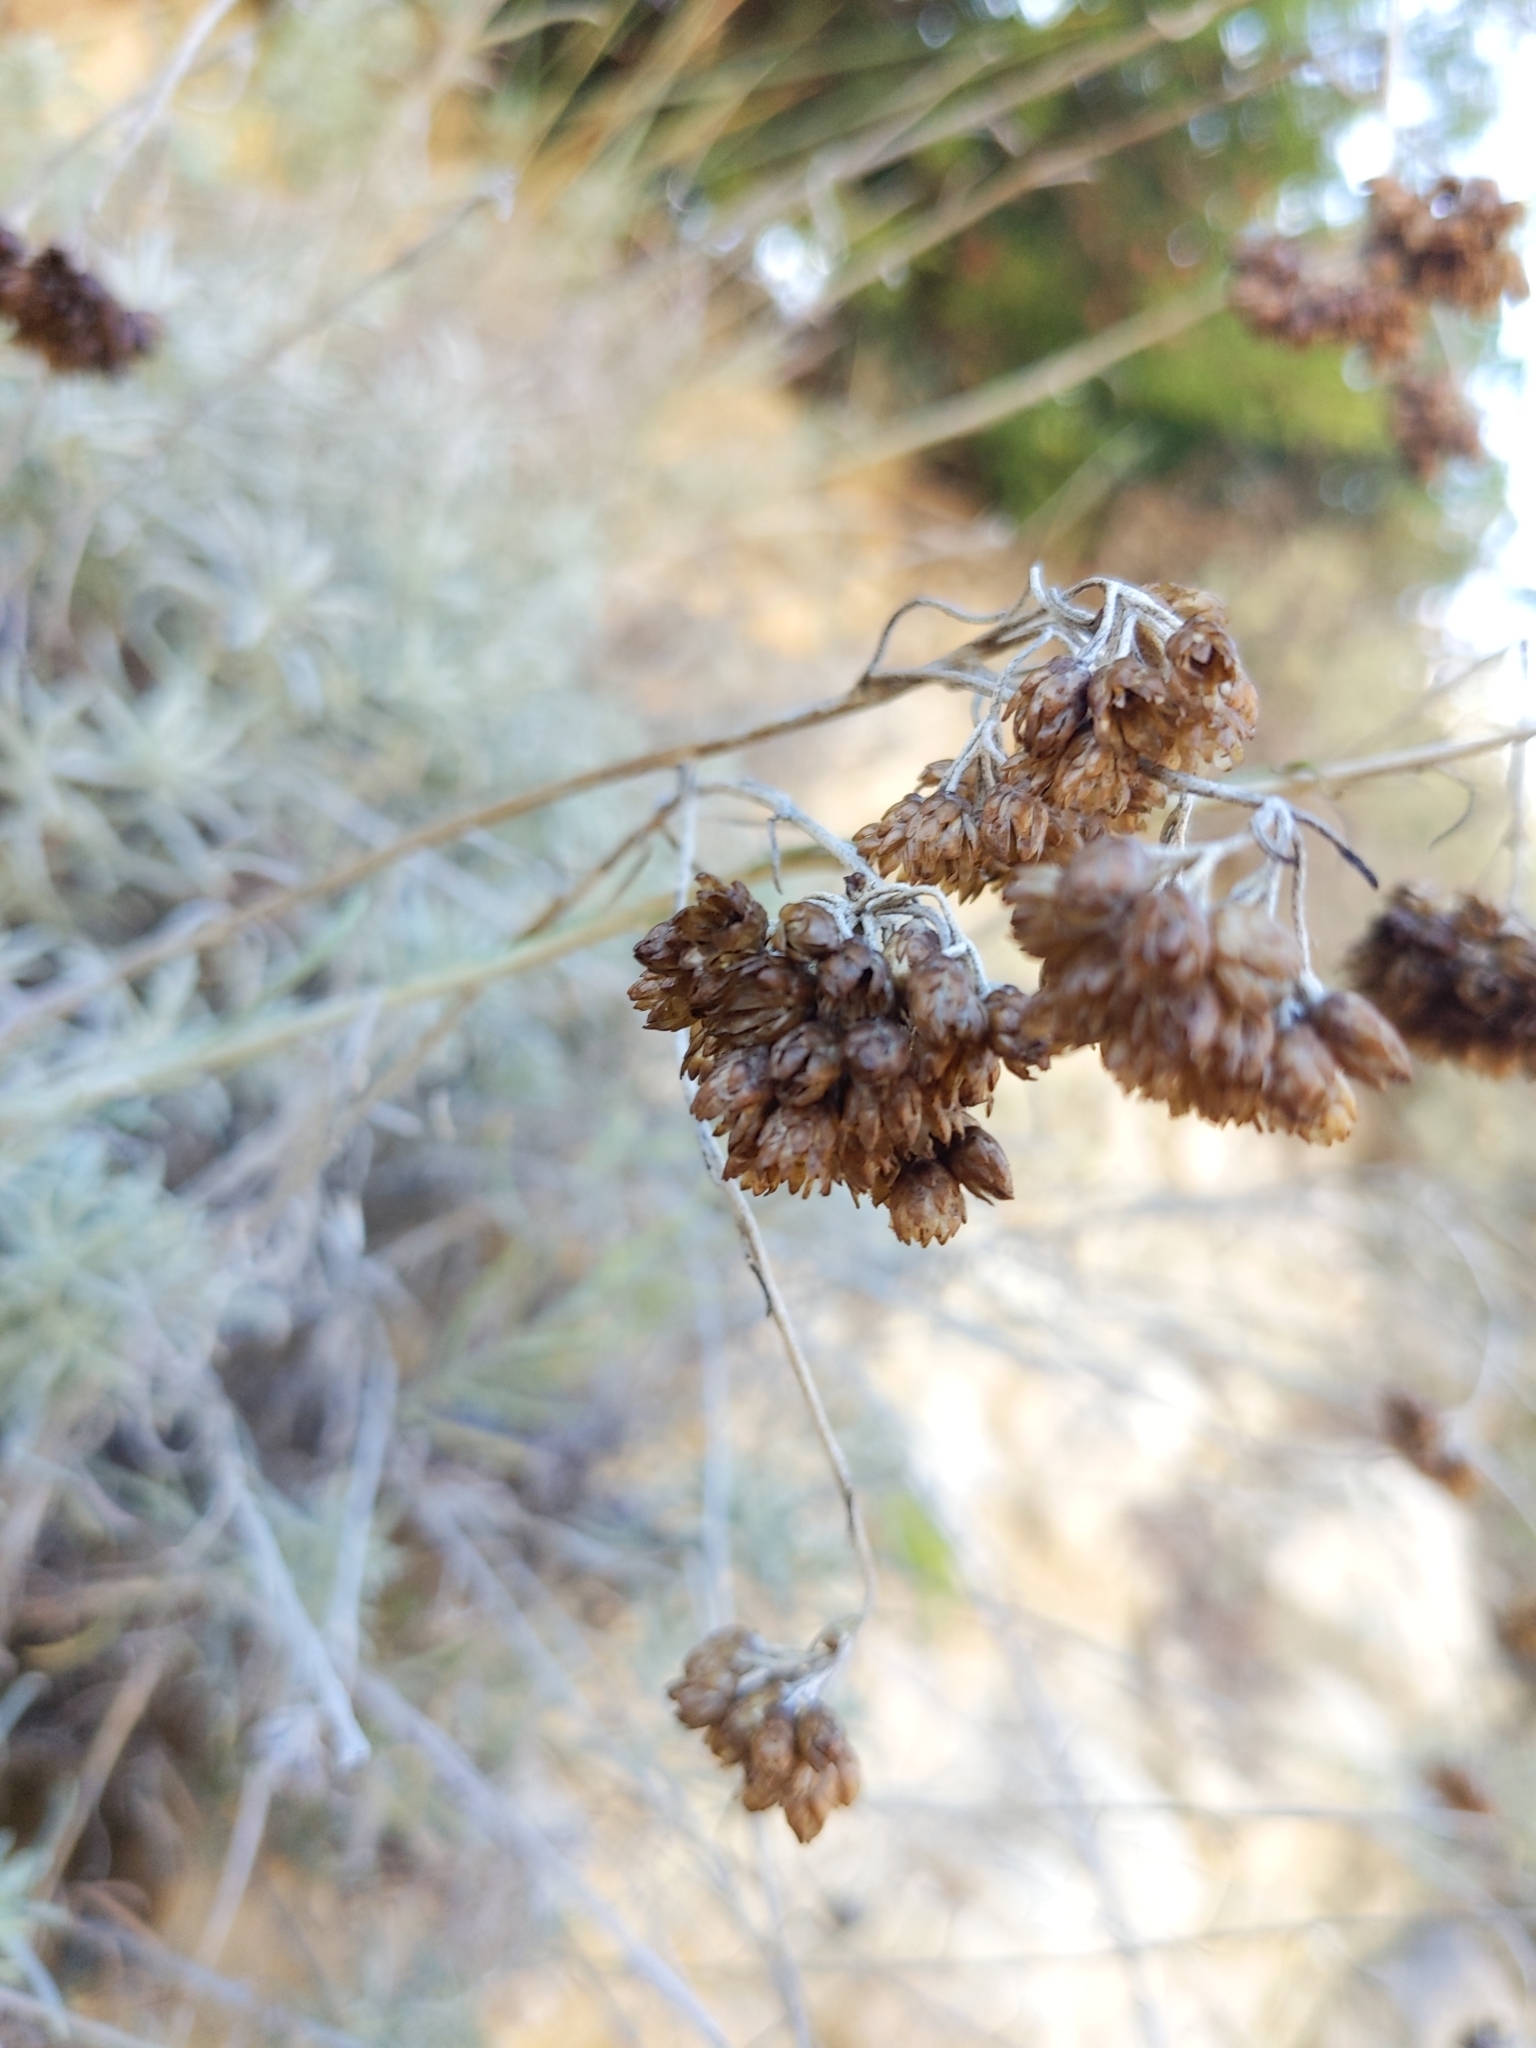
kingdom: Plantae
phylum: Tracheophyta
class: Magnoliopsida
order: Asterales
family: Asteraceae
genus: Helichrysum
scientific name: Helichrysum italicum
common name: Curryplant
